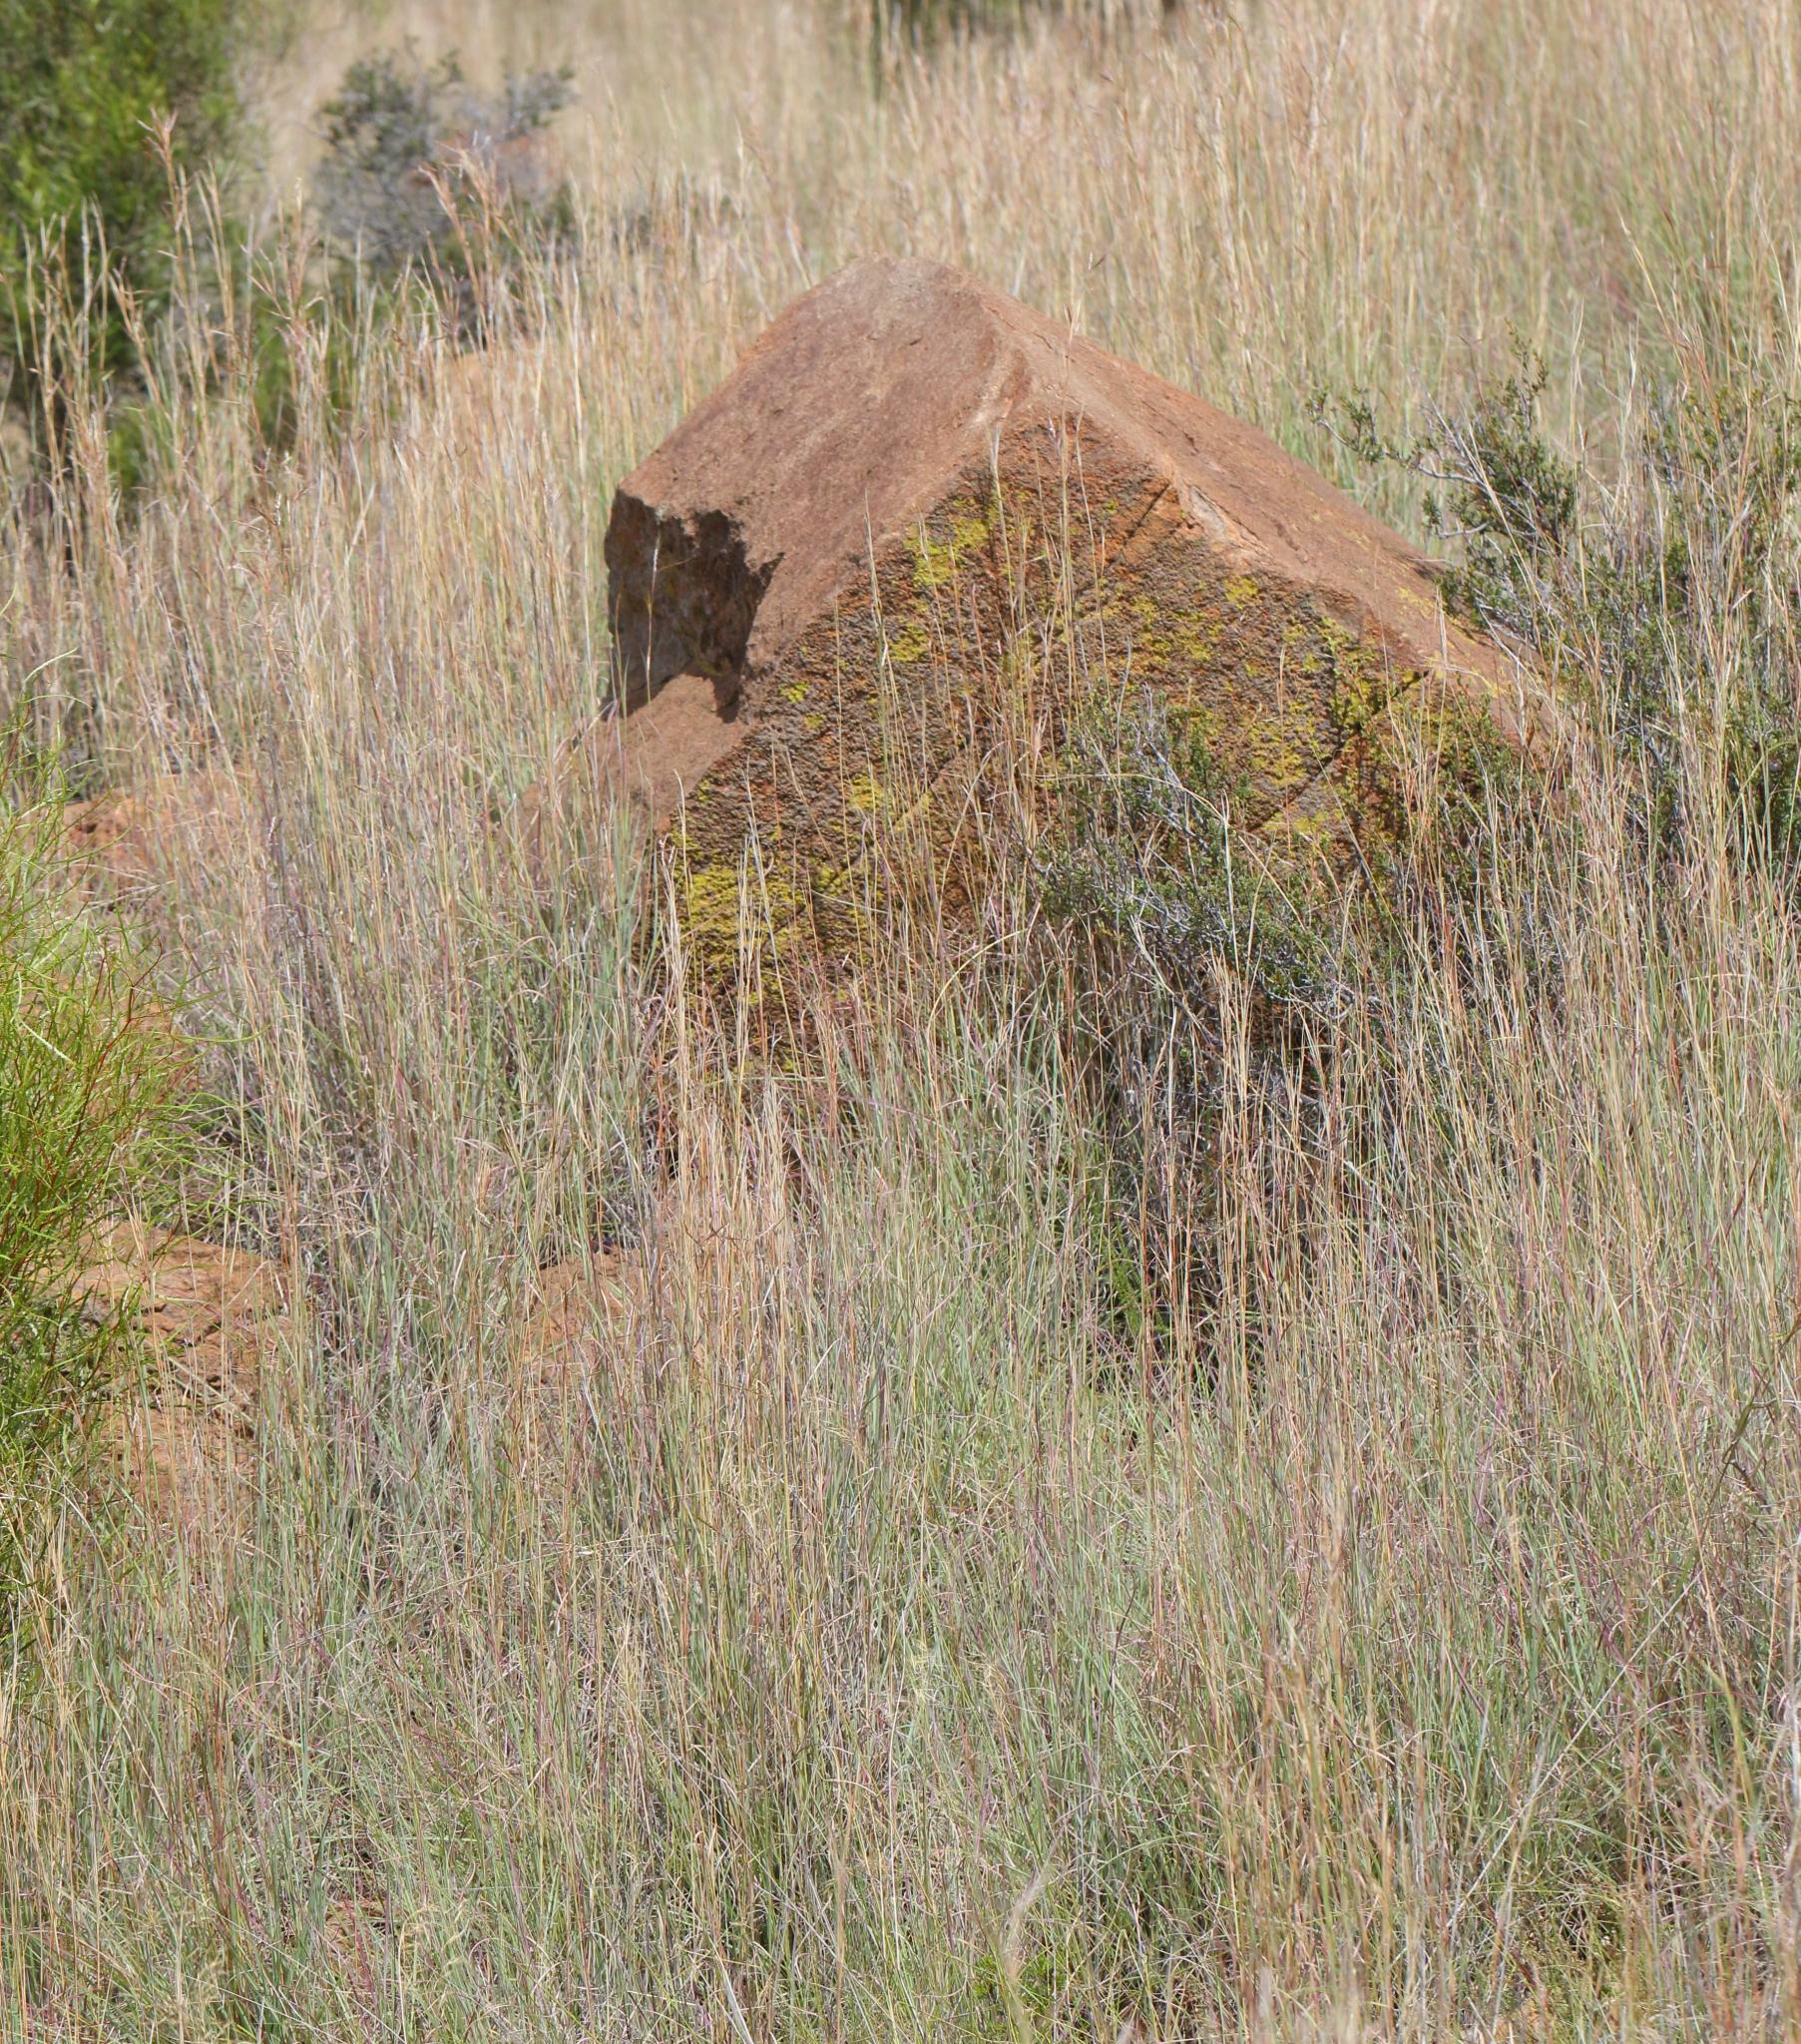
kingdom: Plantae
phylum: Tracheophyta
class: Liliopsida
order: Poales
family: Poaceae
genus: Hyparrhenia
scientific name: Hyparrhenia hirta
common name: Thatching grass
